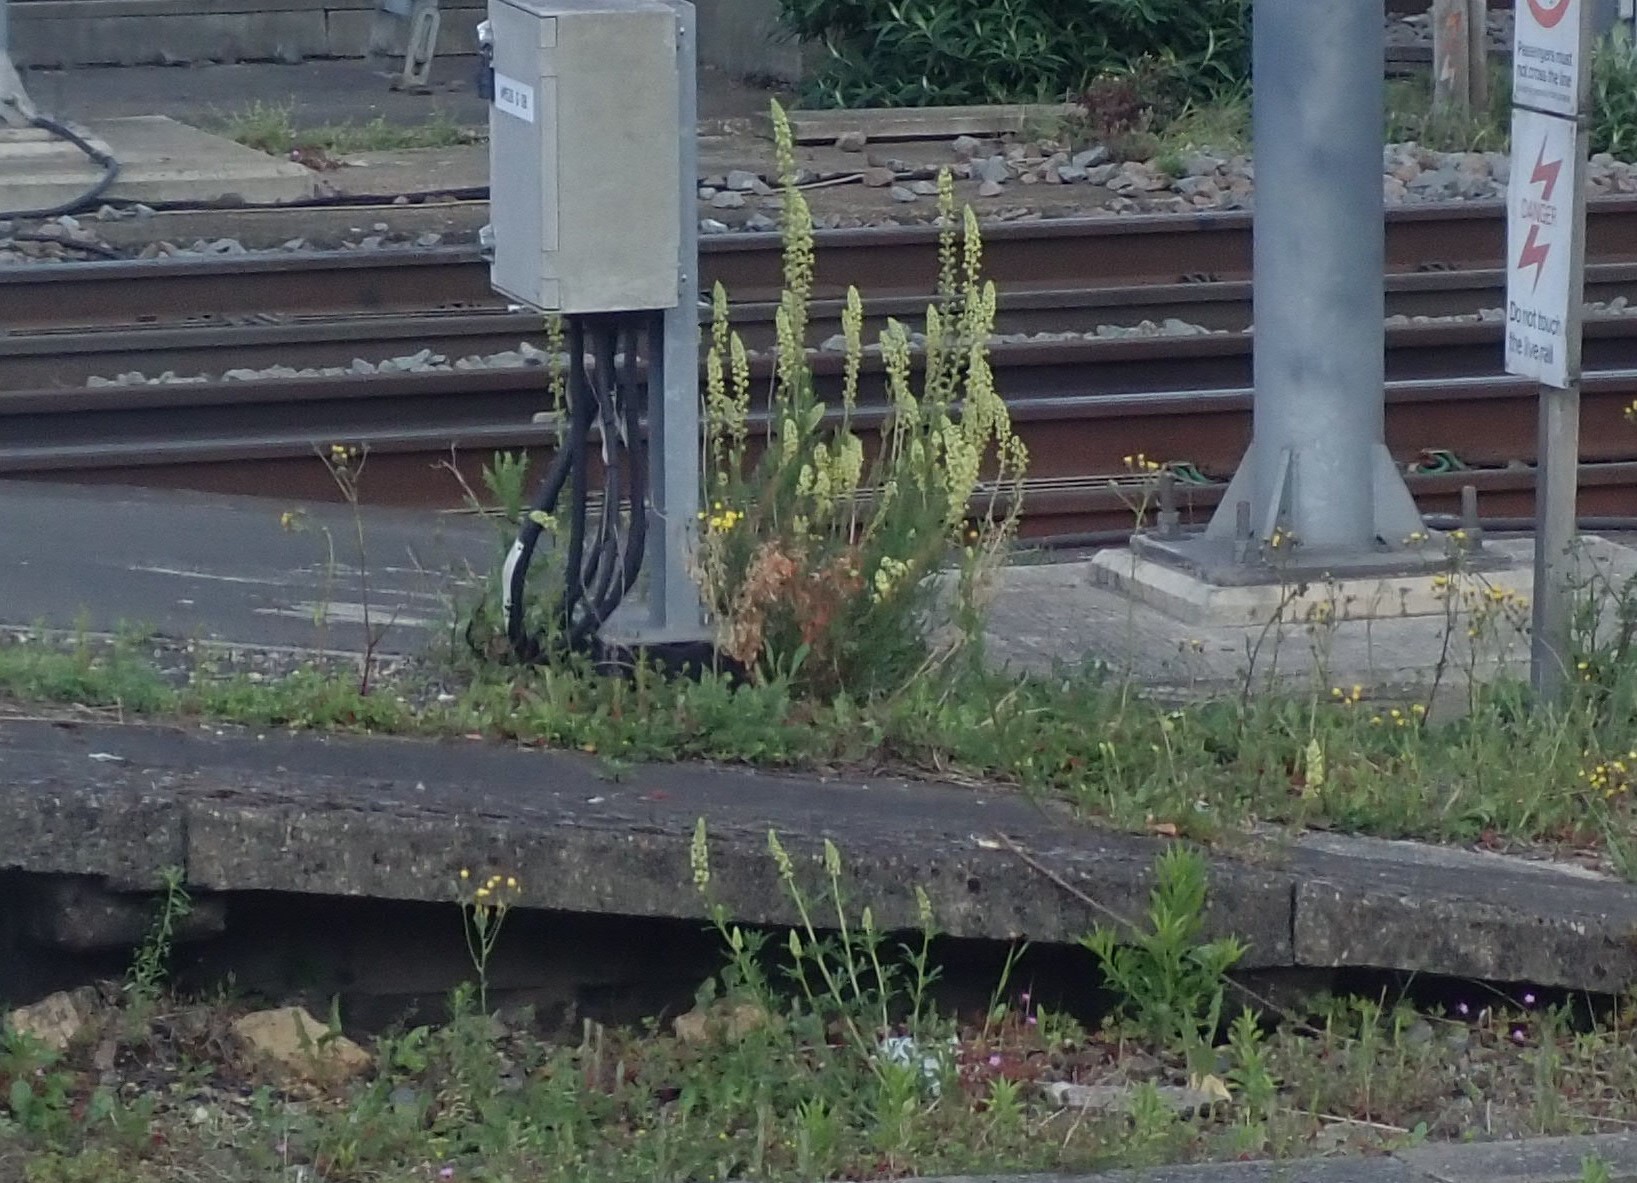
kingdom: Plantae
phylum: Tracheophyta
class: Magnoliopsida
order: Brassicales
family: Resedaceae
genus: Reseda
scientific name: Reseda lutea
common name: Wild mignonette
